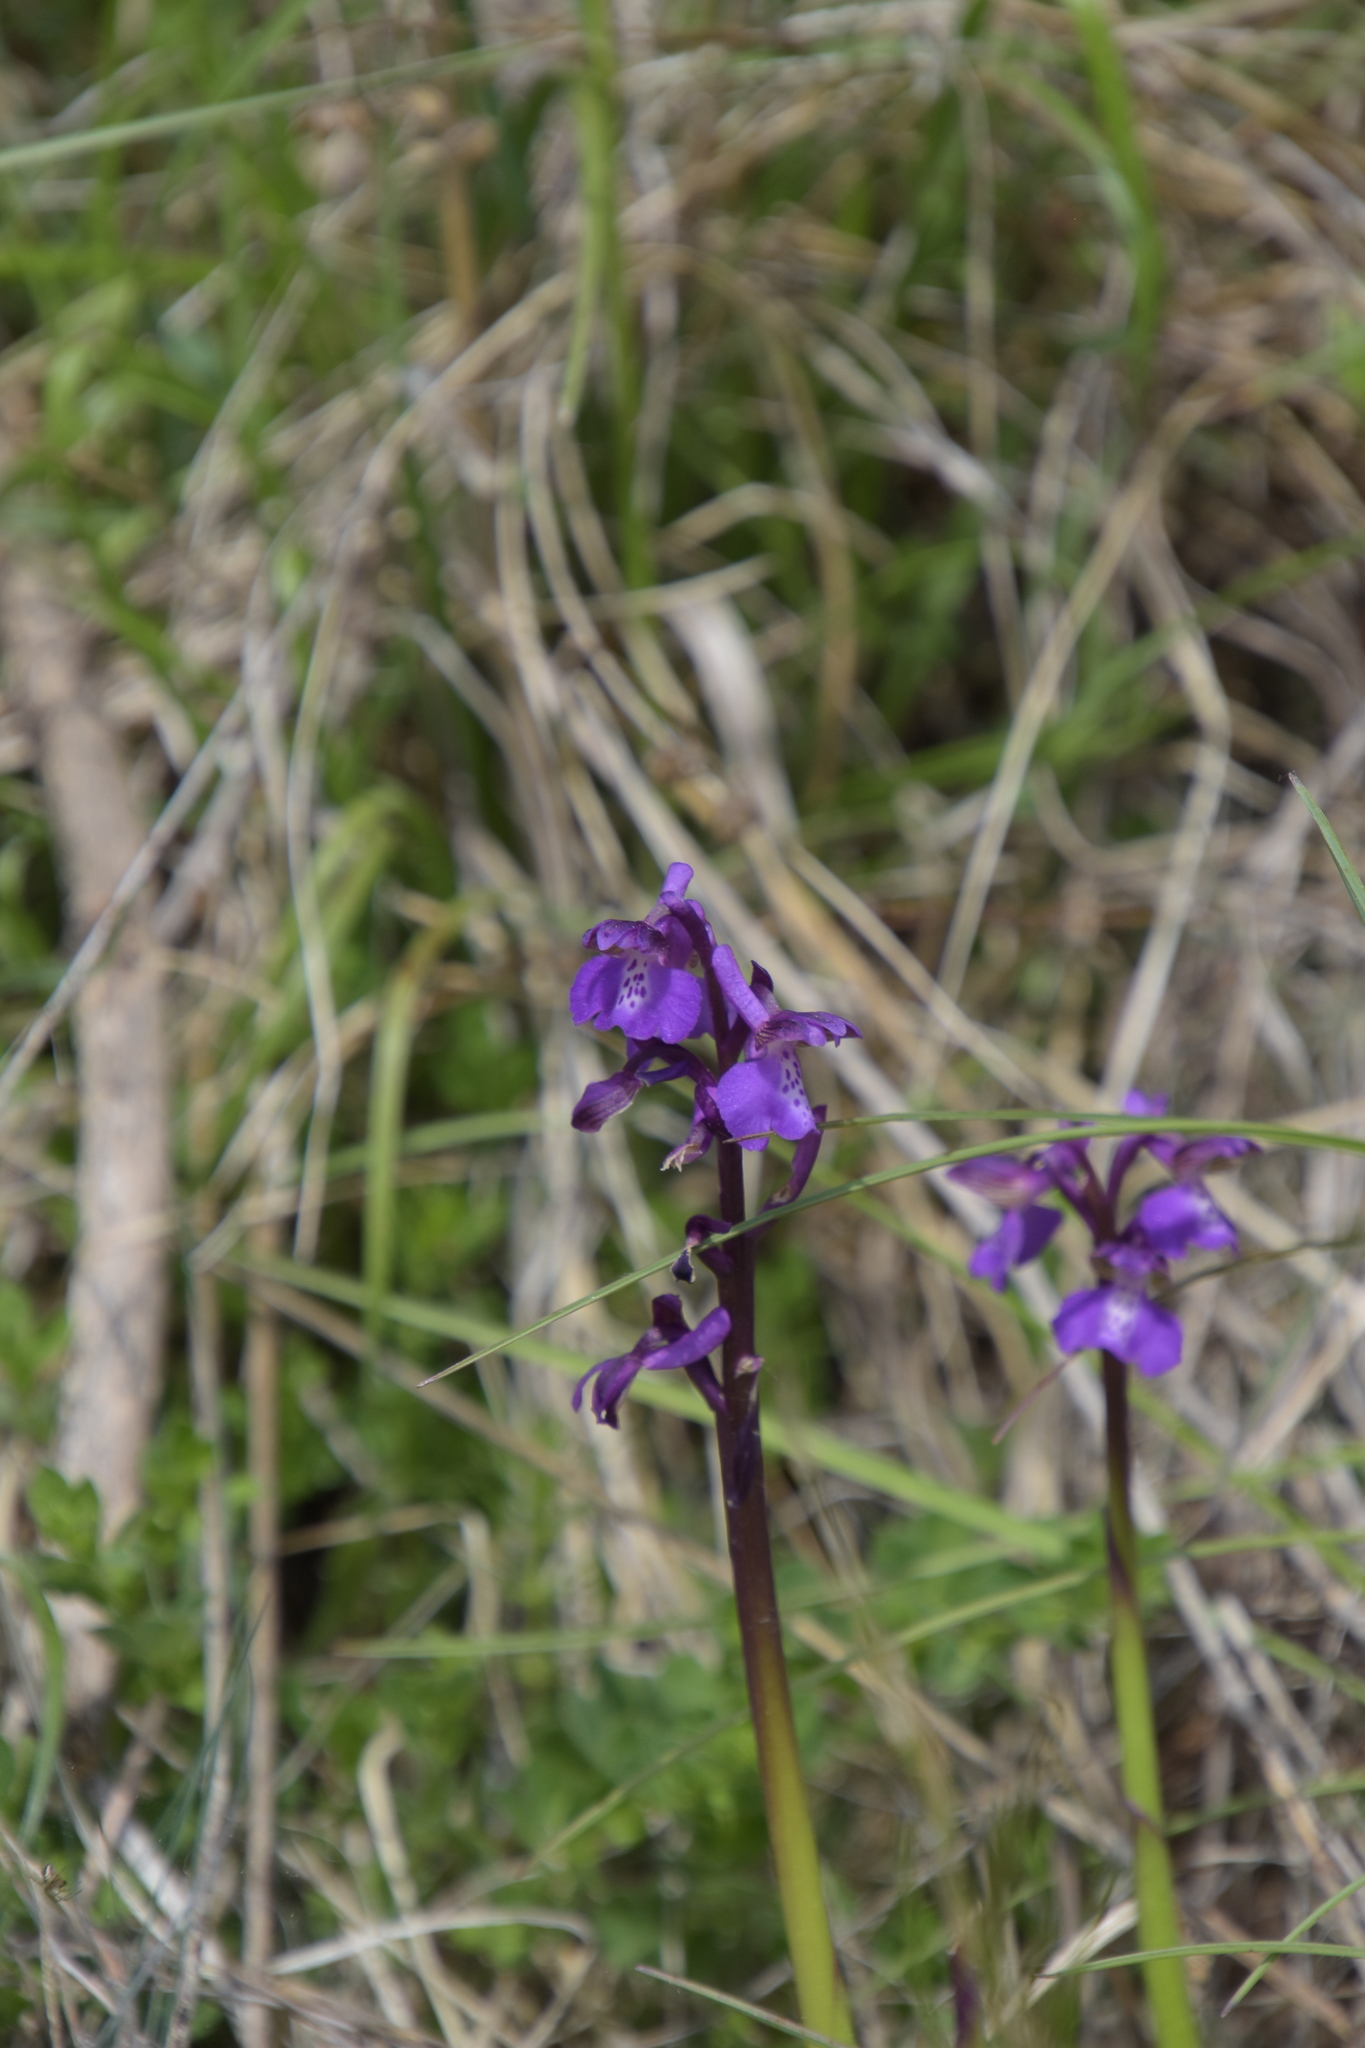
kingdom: Plantae
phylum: Tracheophyta
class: Liliopsida
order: Asparagales
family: Orchidaceae
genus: Anacamptis
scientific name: Anacamptis morio
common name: Green-winged orchid
